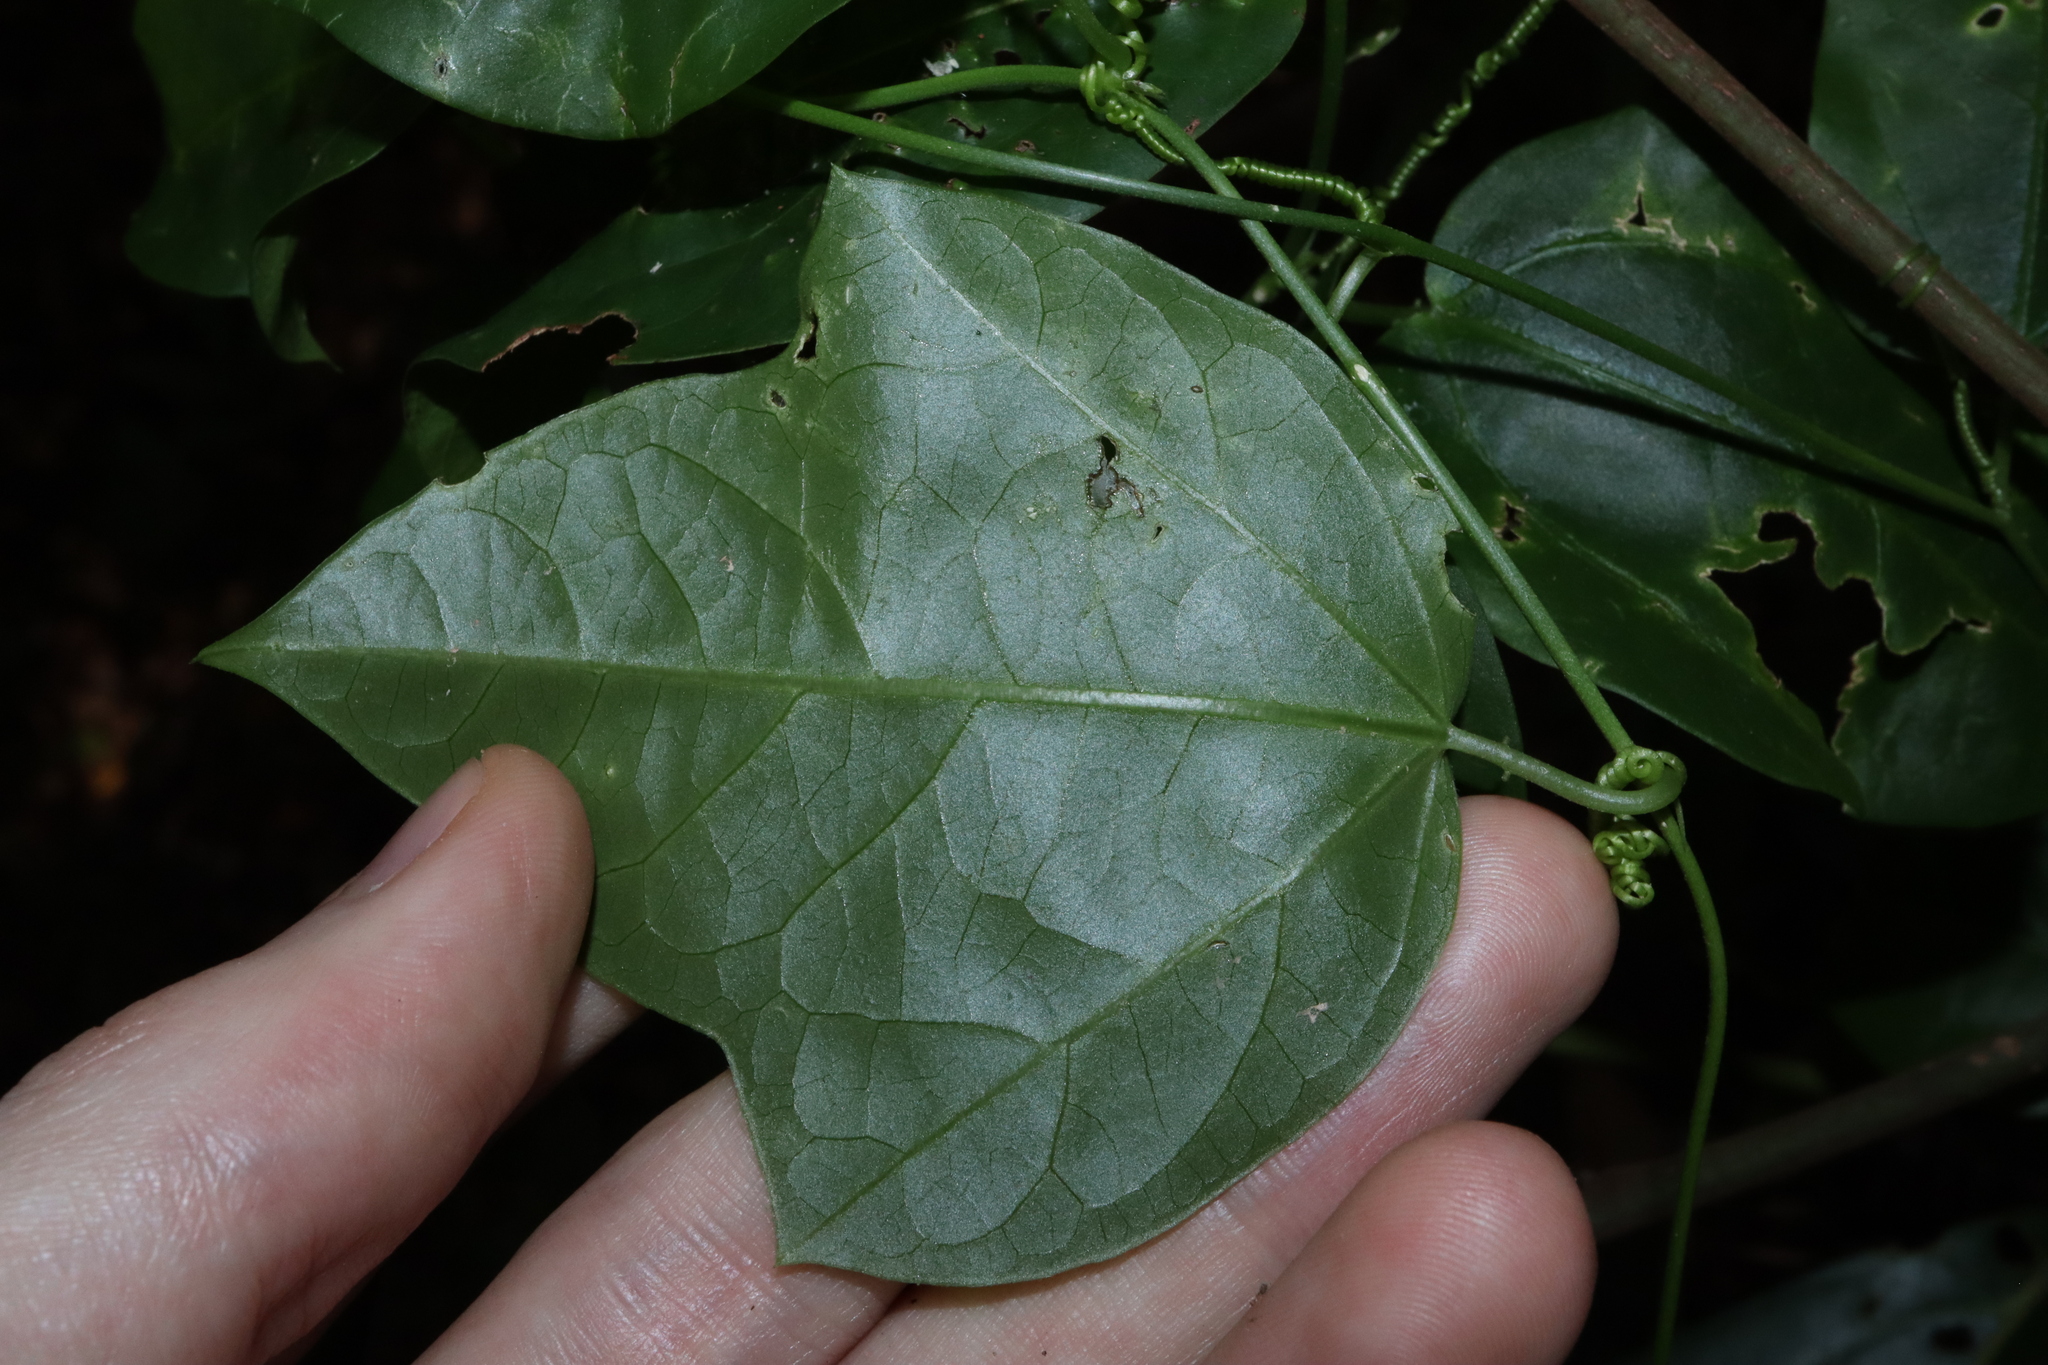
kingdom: Plantae
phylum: Tracheophyta
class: Magnoliopsida
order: Malpighiales
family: Passifloraceae
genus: Passiflora
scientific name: Passiflora suberosa
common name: Wild passionfruit
